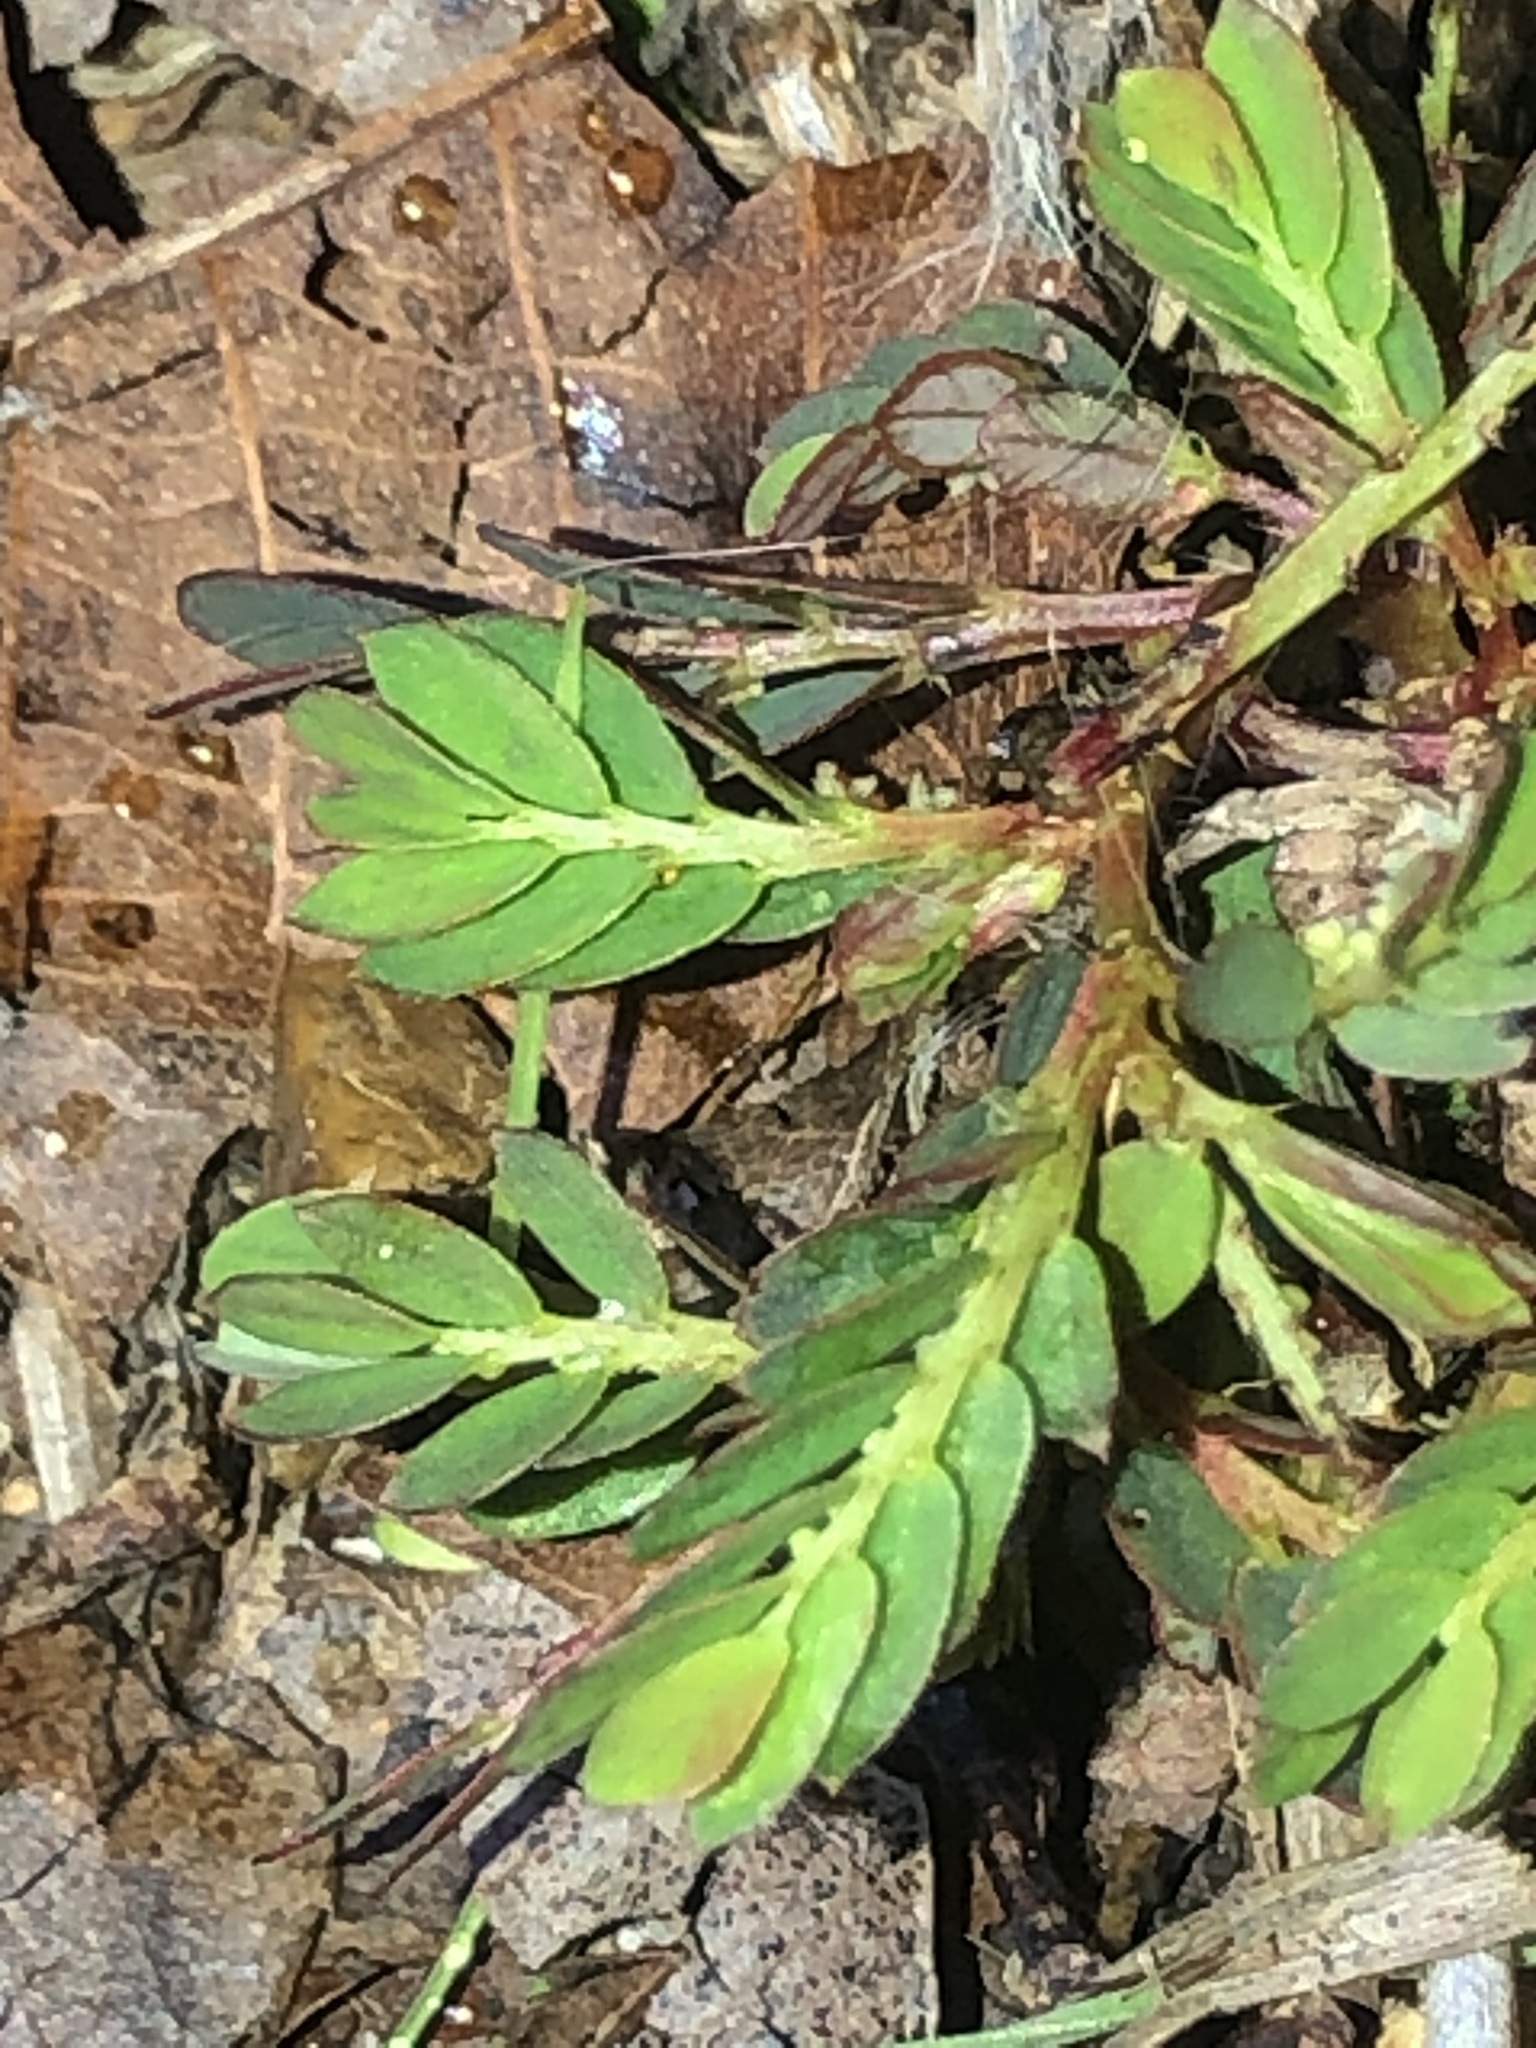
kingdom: Plantae
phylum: Tracheophyta
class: Magnoliopsida
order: Malpighiales
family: Phyllanthaceae
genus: Phyllanthus
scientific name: Phyllanthus urinaria
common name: Chamber bitter
